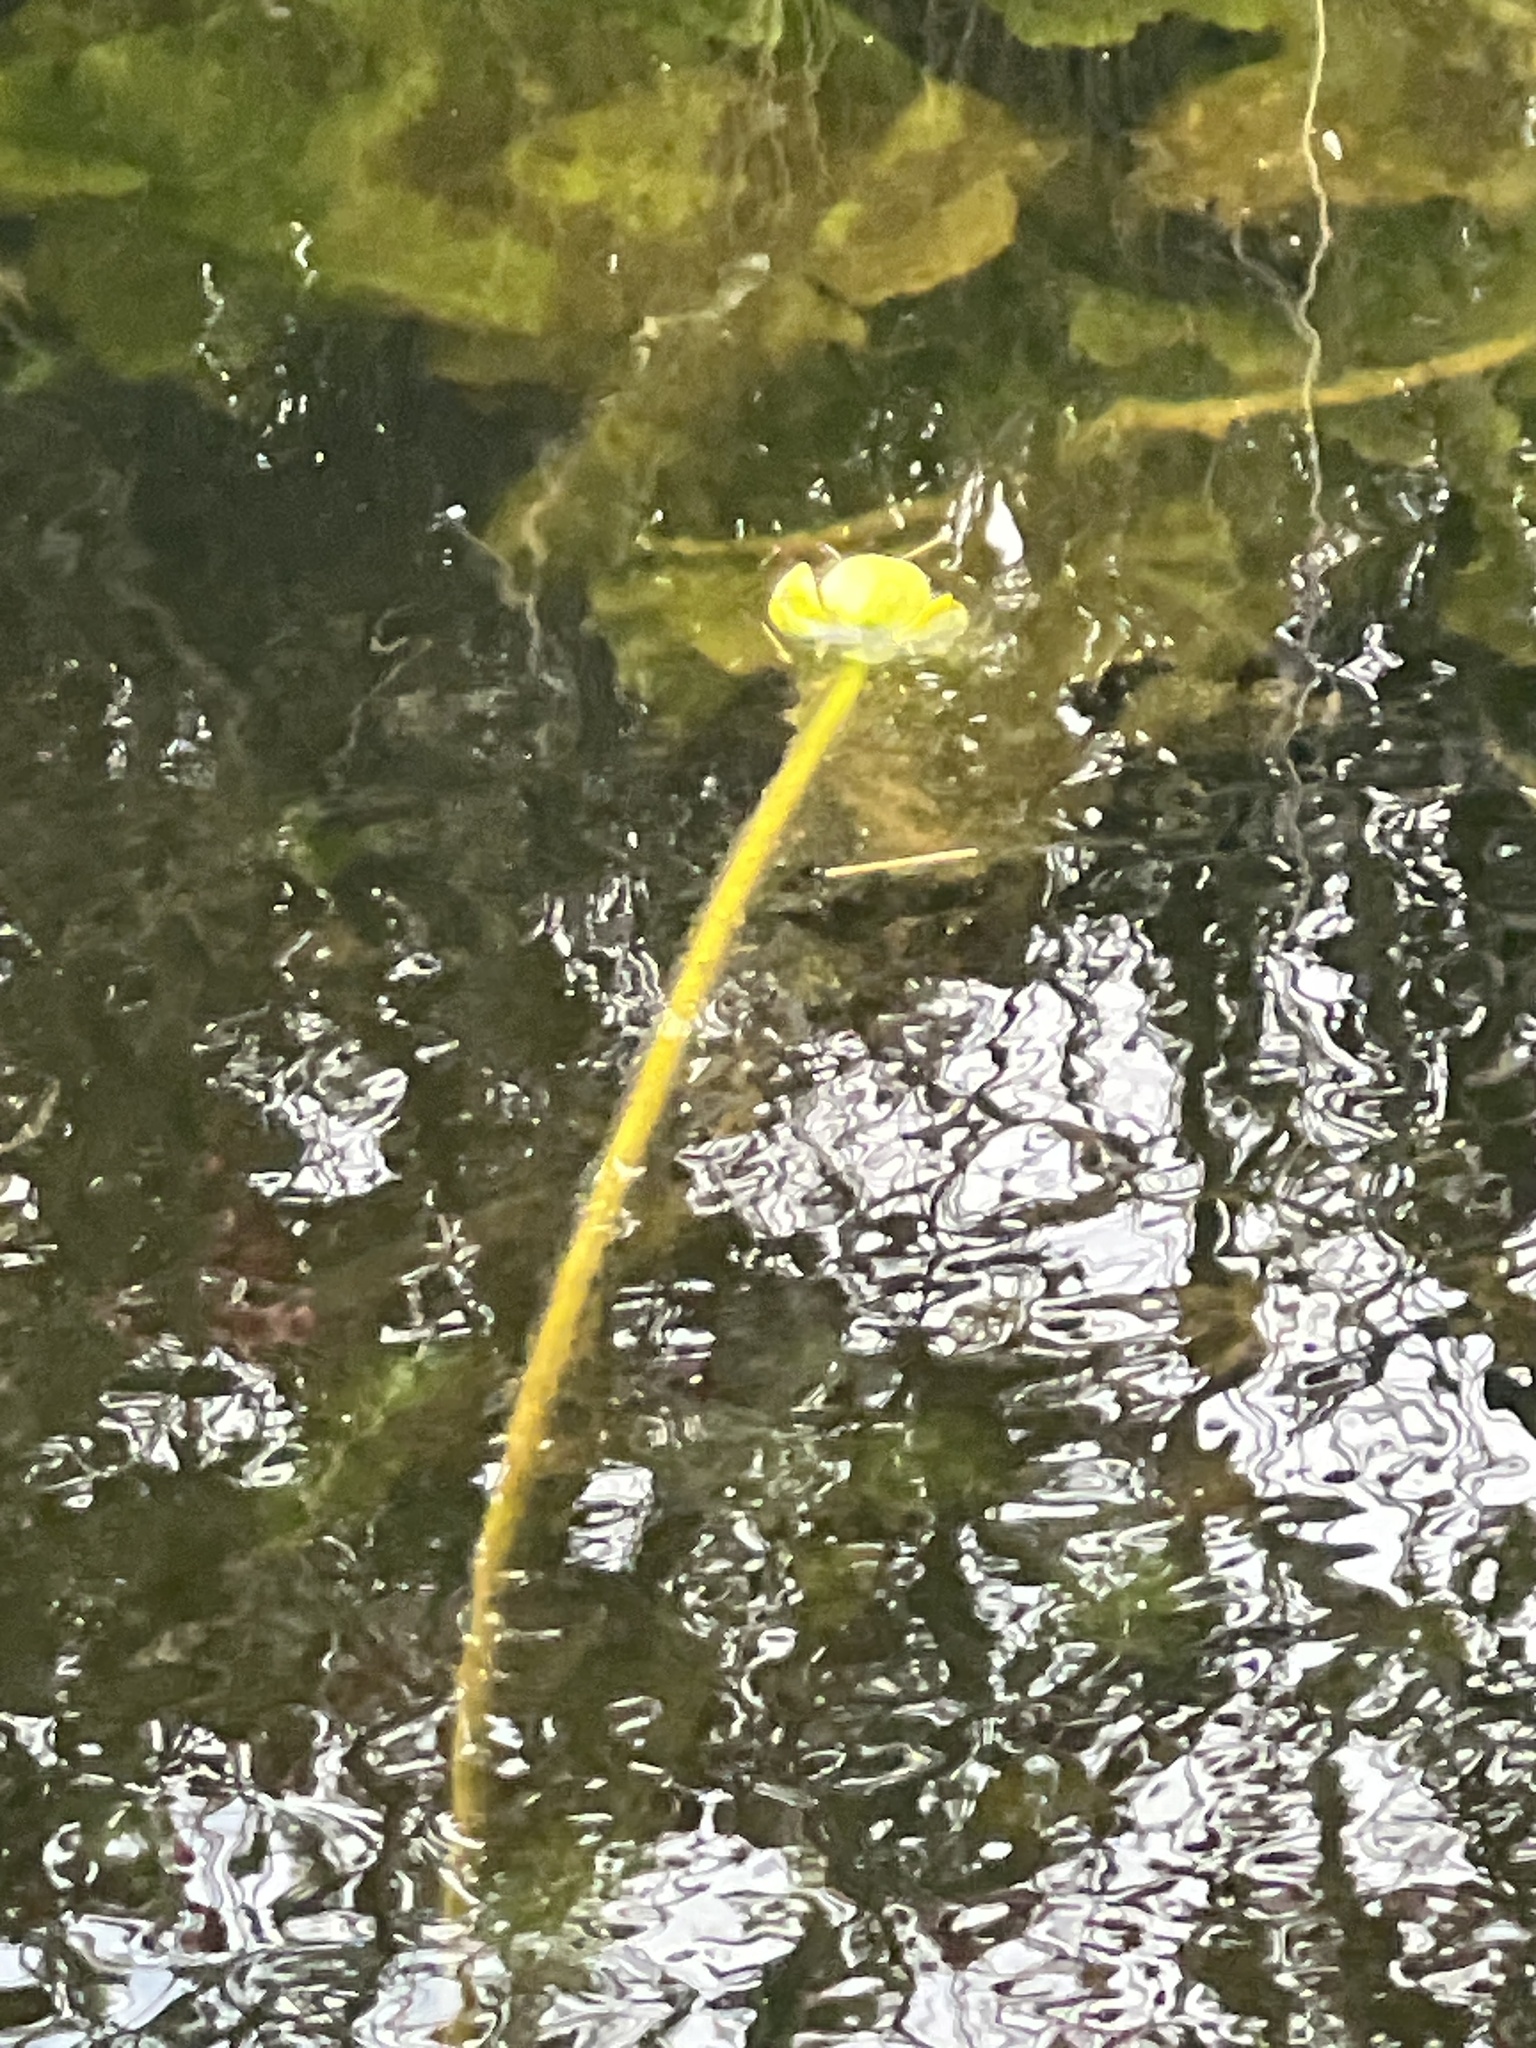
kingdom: Plantae
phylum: Tracheophyta
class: Magnoliopsida
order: Nymphaeales
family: Nymphaeaceae
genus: Nuphar
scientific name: Nuphar lutea
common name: Yellow water-lily
